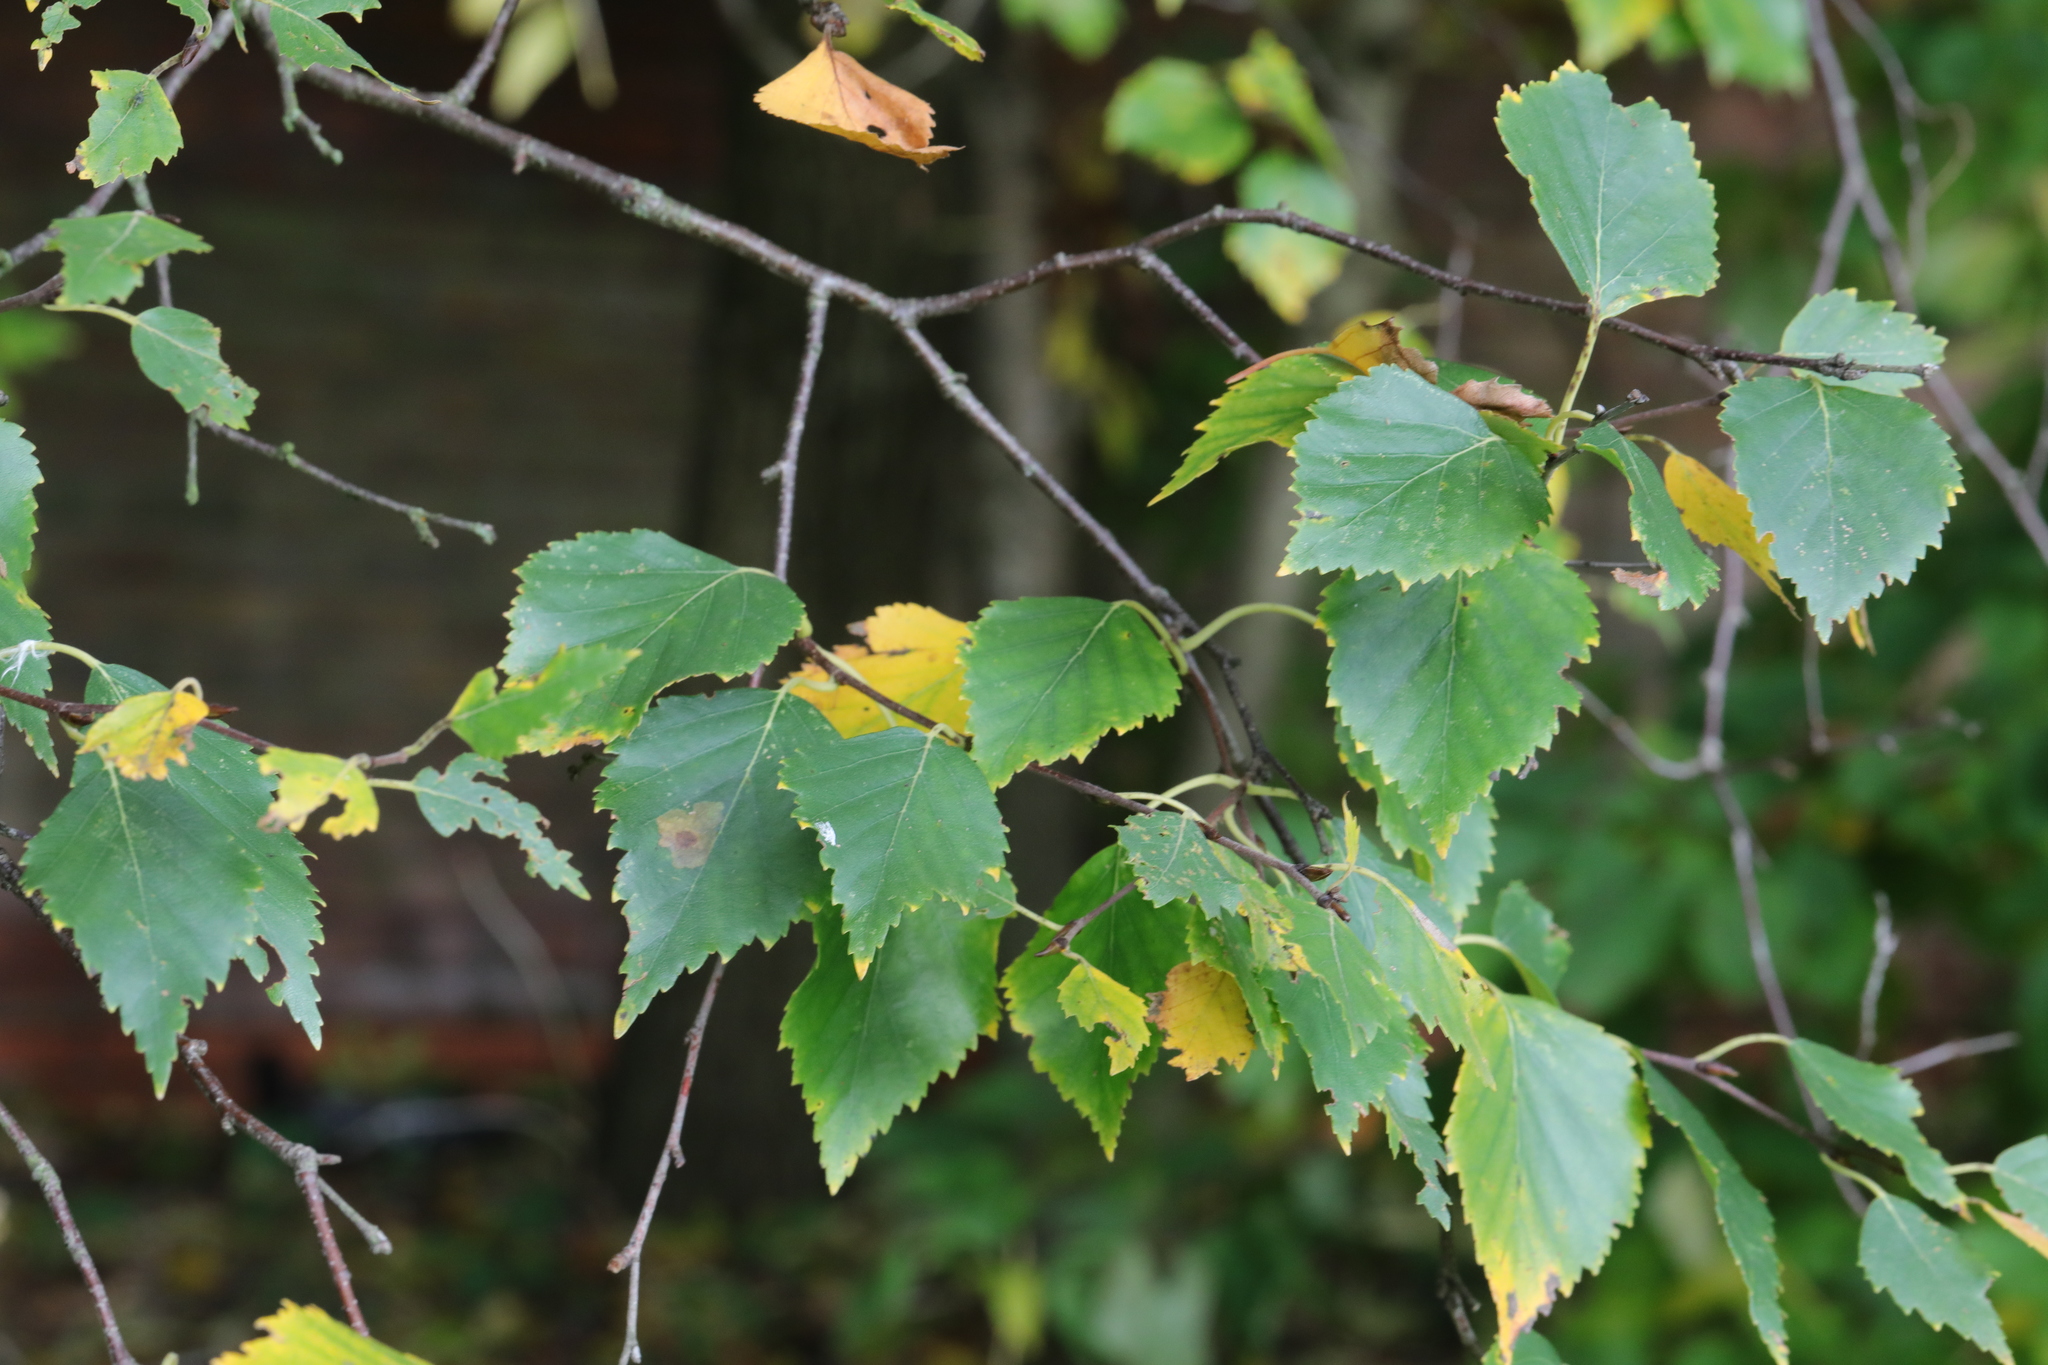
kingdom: Plantae
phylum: Tracheophyta
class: Magnoliopsida
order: Fagales
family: Betulaceae
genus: Betula
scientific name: Betula pendula
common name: Silver birch
